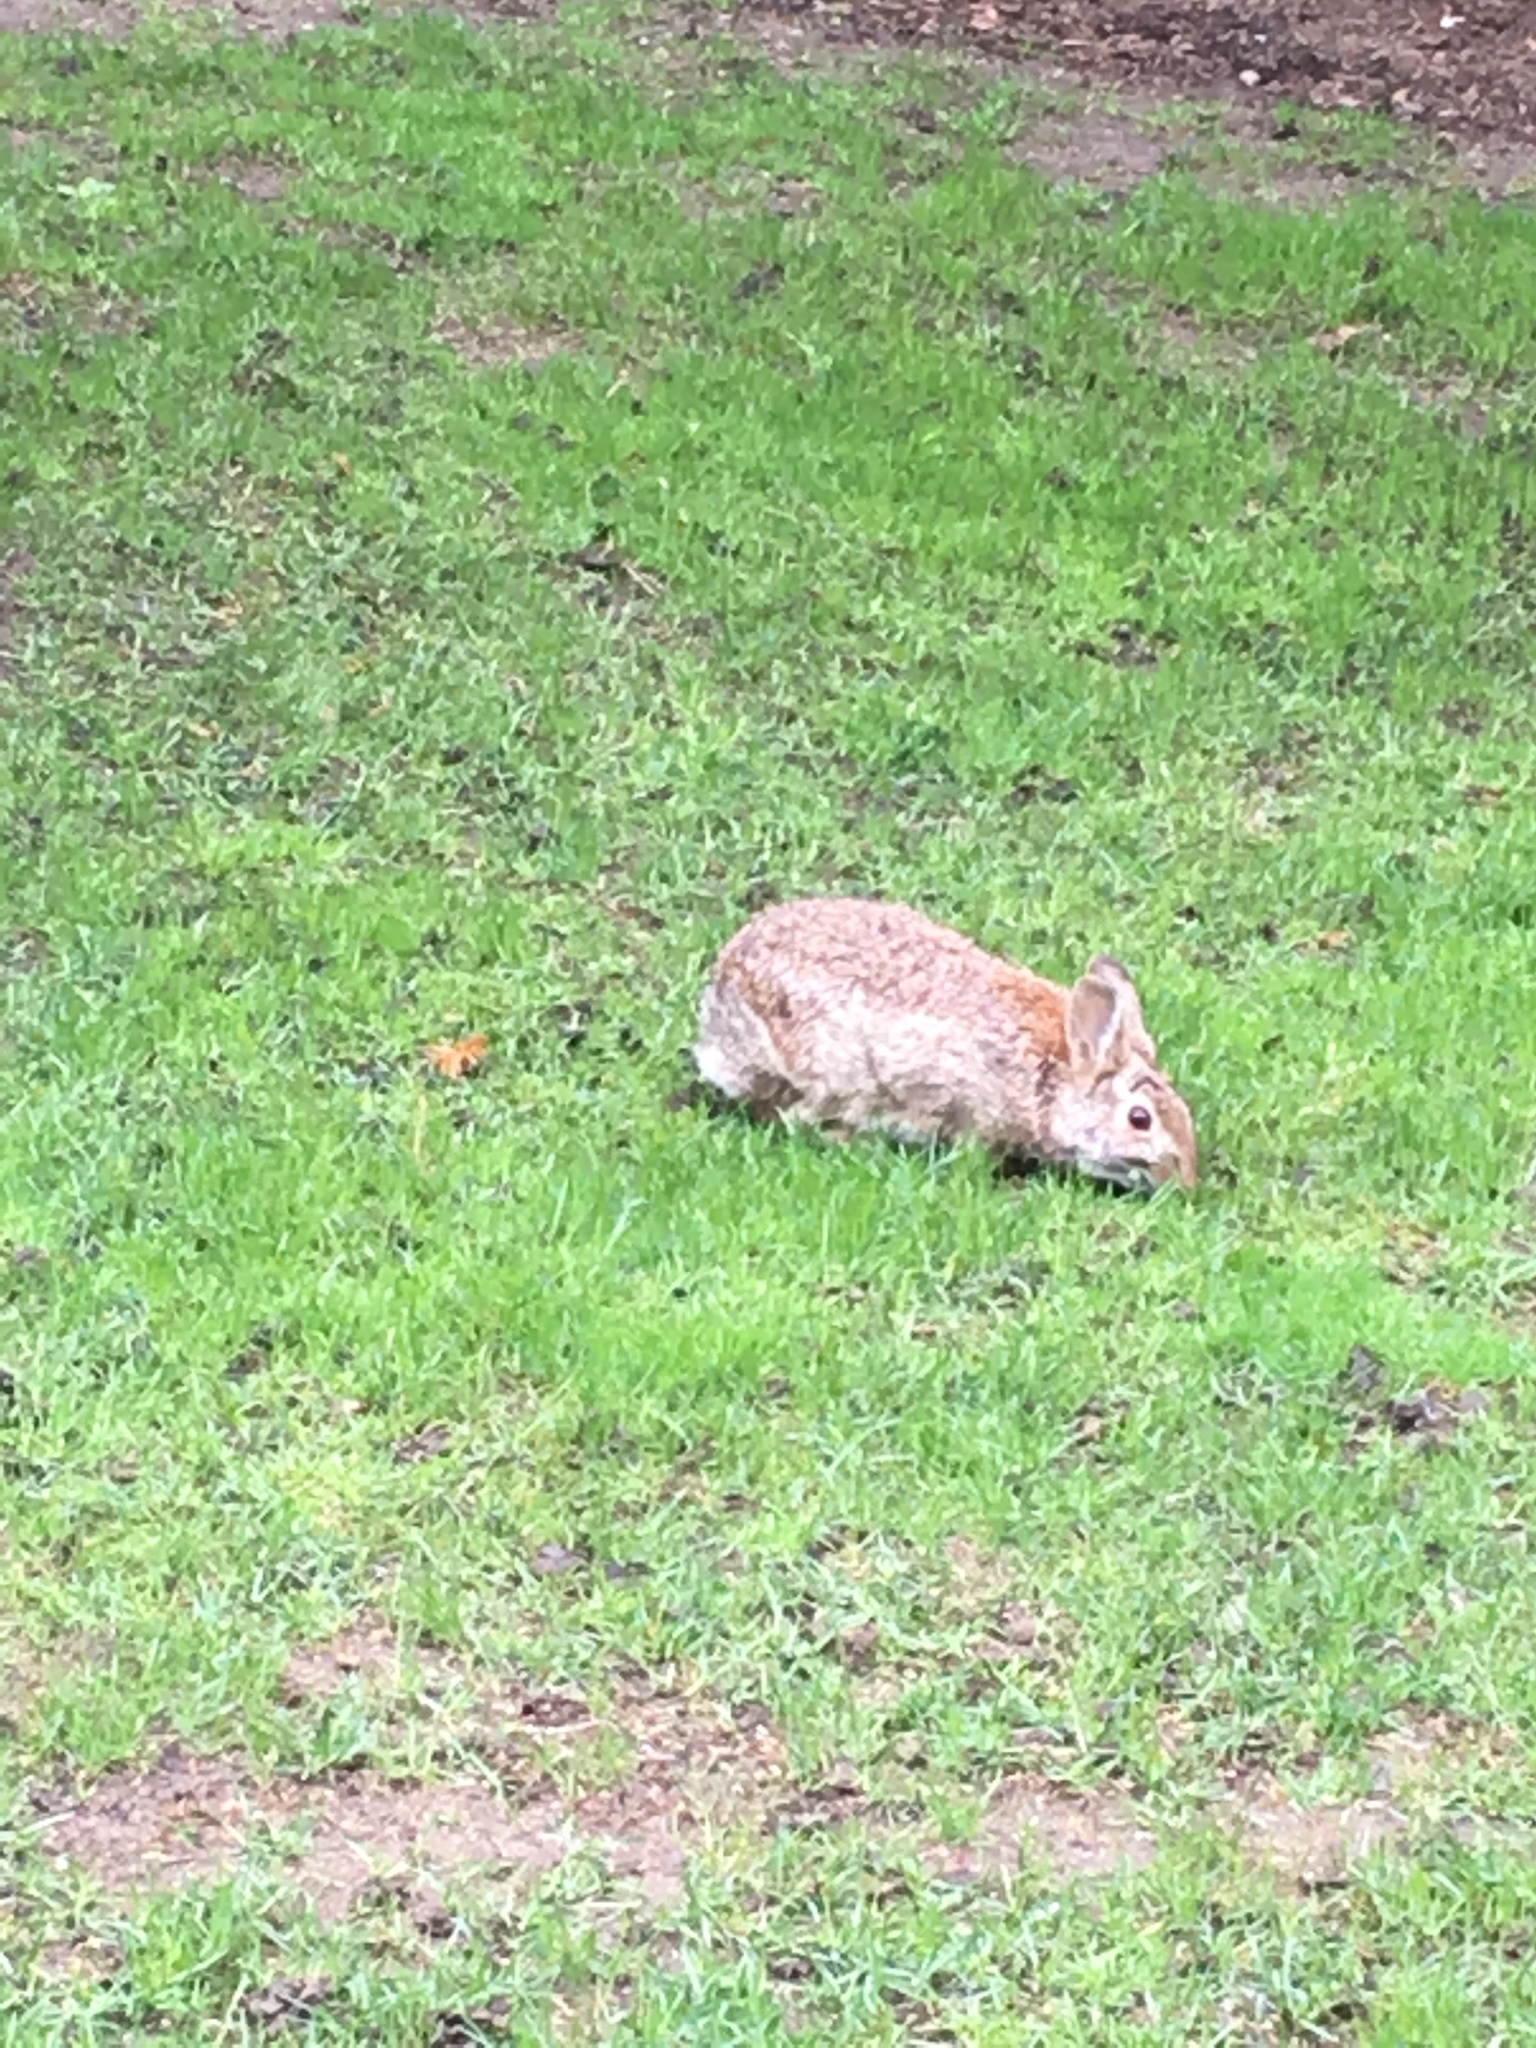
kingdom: Animalia
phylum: Chordata
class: Mammalia
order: Lagomorpha
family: Leporidae
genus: Sylvilagus
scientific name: Sylvilagus floridanus
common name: Eastern cottontail
